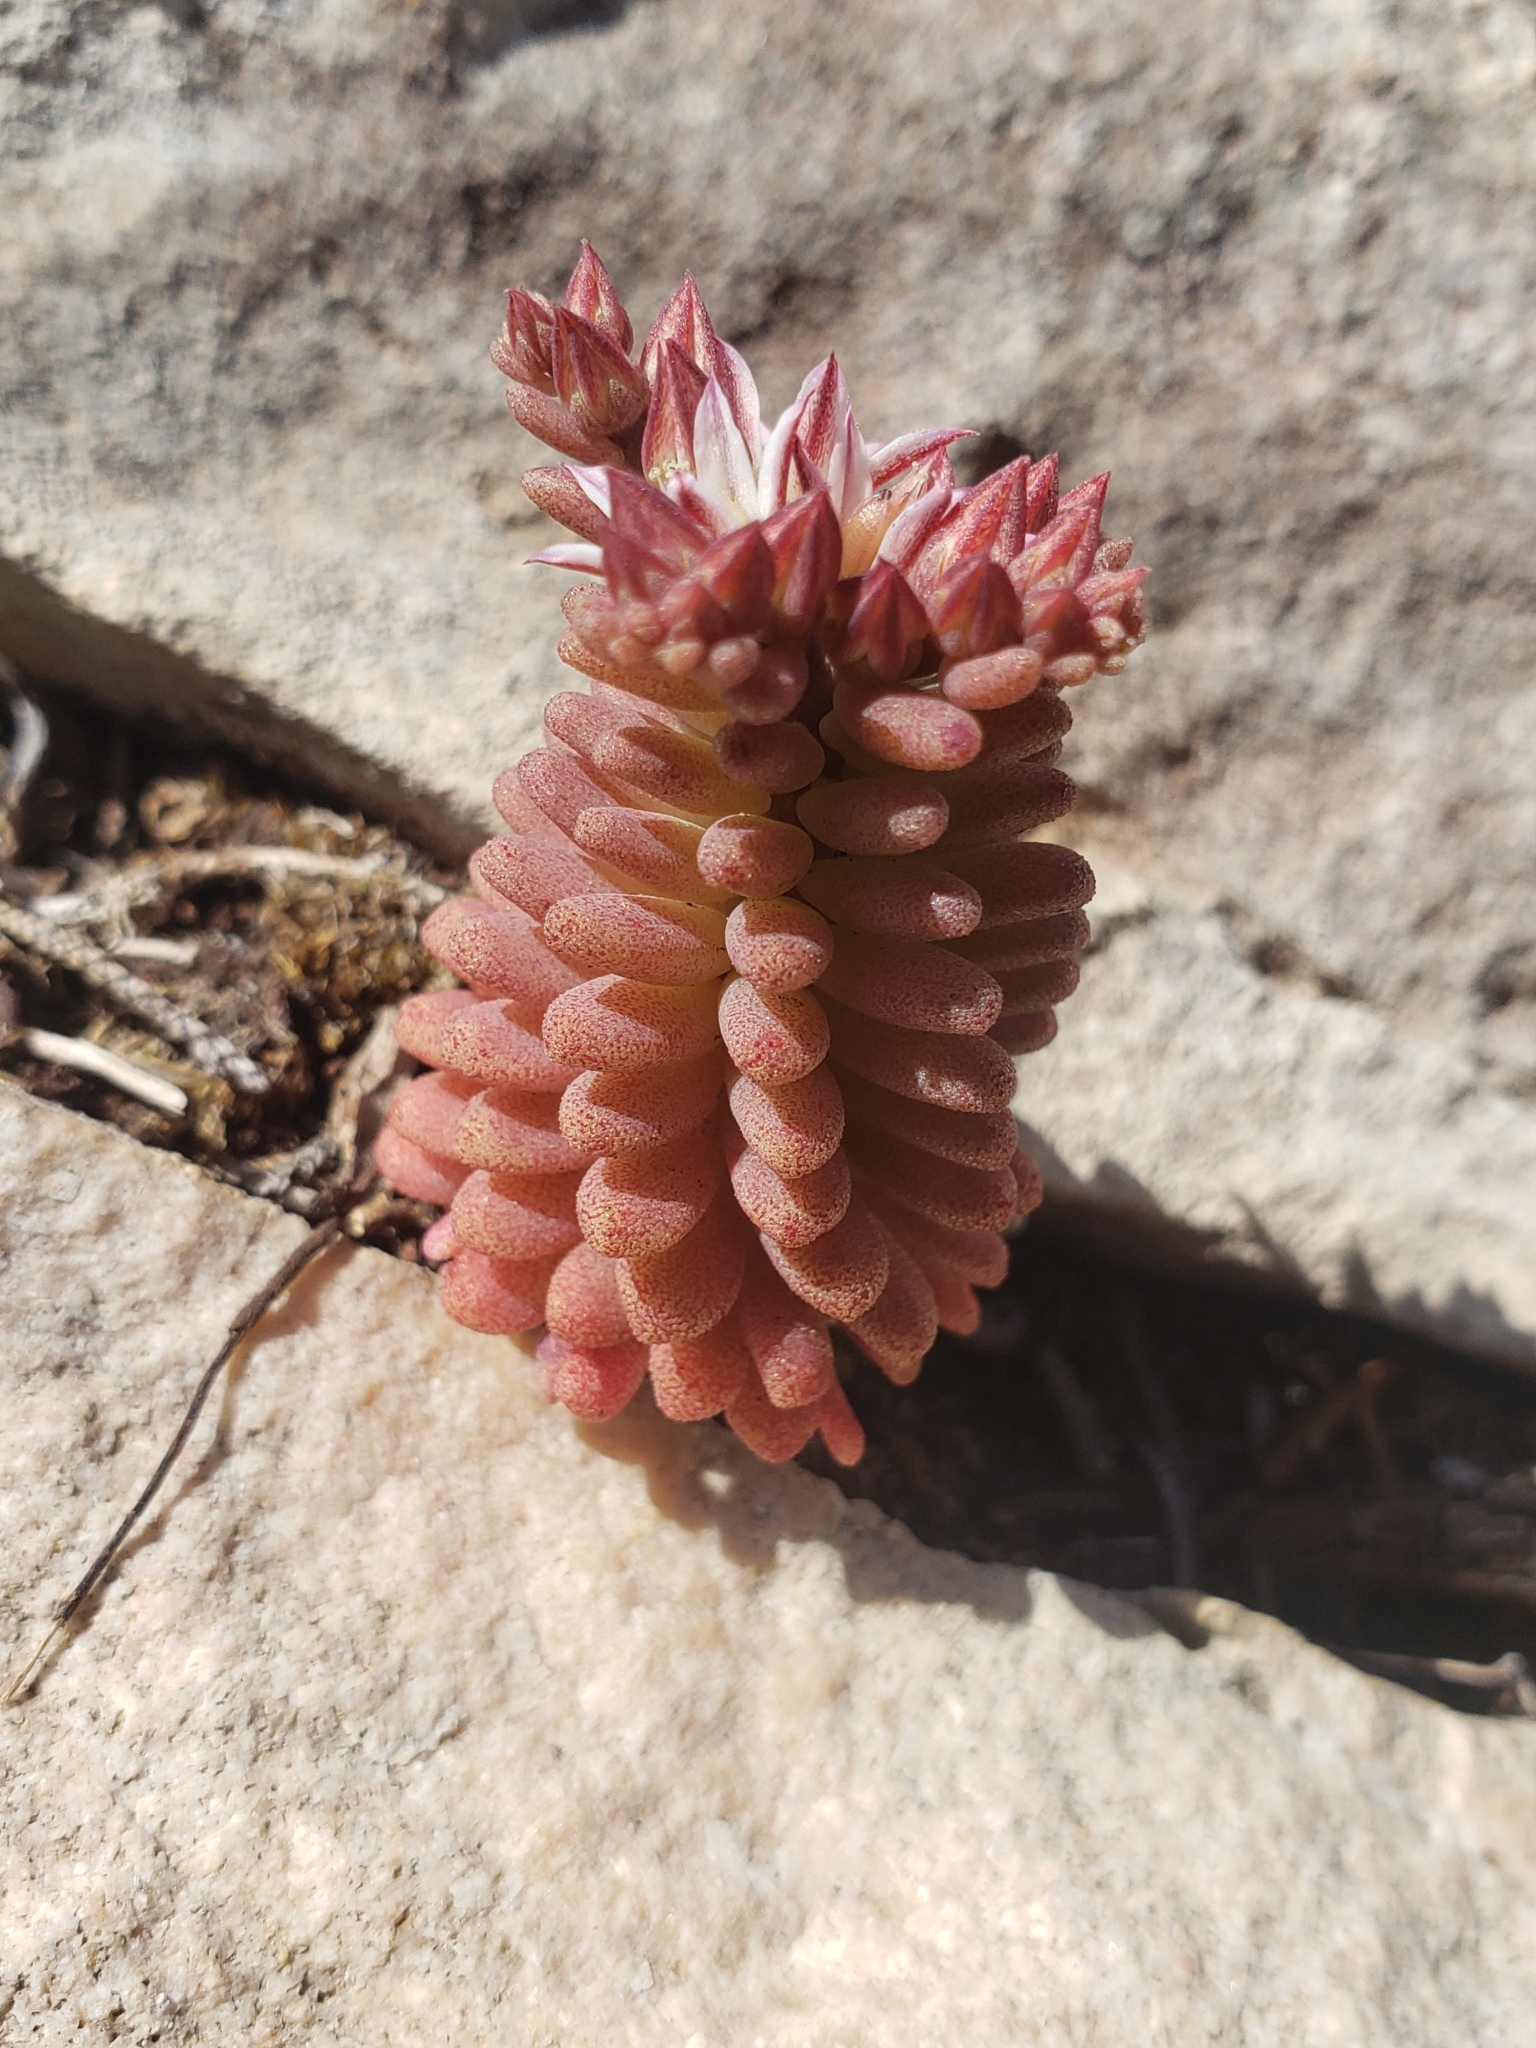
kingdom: Plantae
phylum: Tracheophyta
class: Magnoliopsida
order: Saxifragales
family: Crassulaceae
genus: Sedum
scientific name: Sedum rubens
